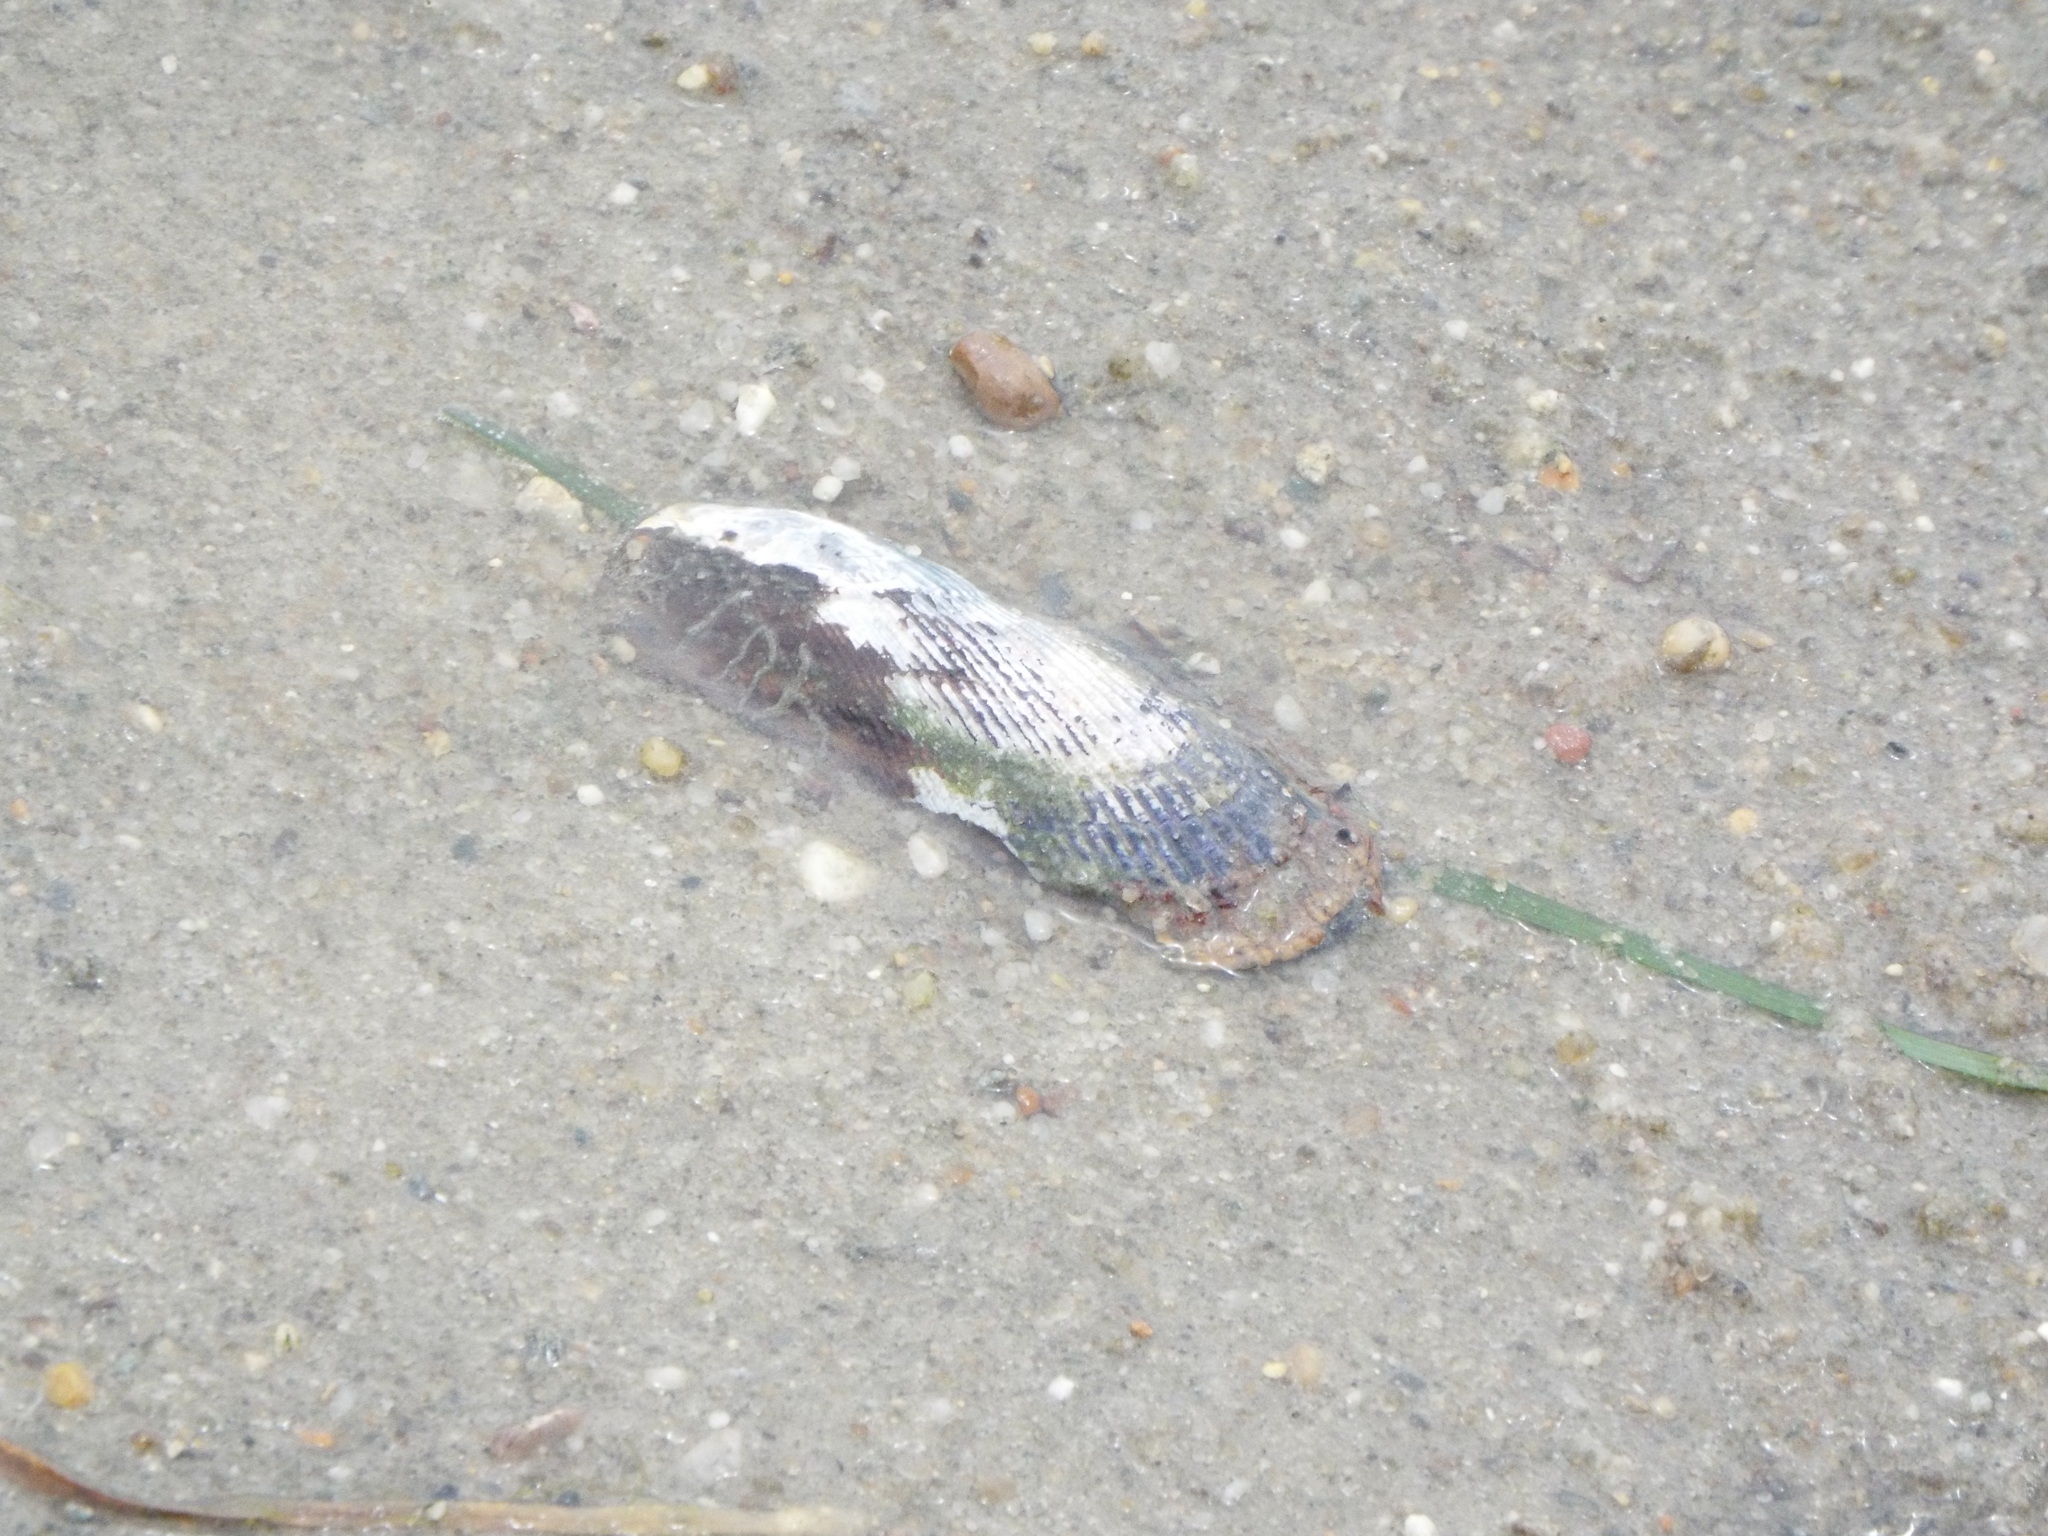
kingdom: Animalia
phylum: Mollusca
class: Bivalvia
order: Mytilida
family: Mytilidae
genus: Geukensia
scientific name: Geukensia demissa
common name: Ribbed mussel
